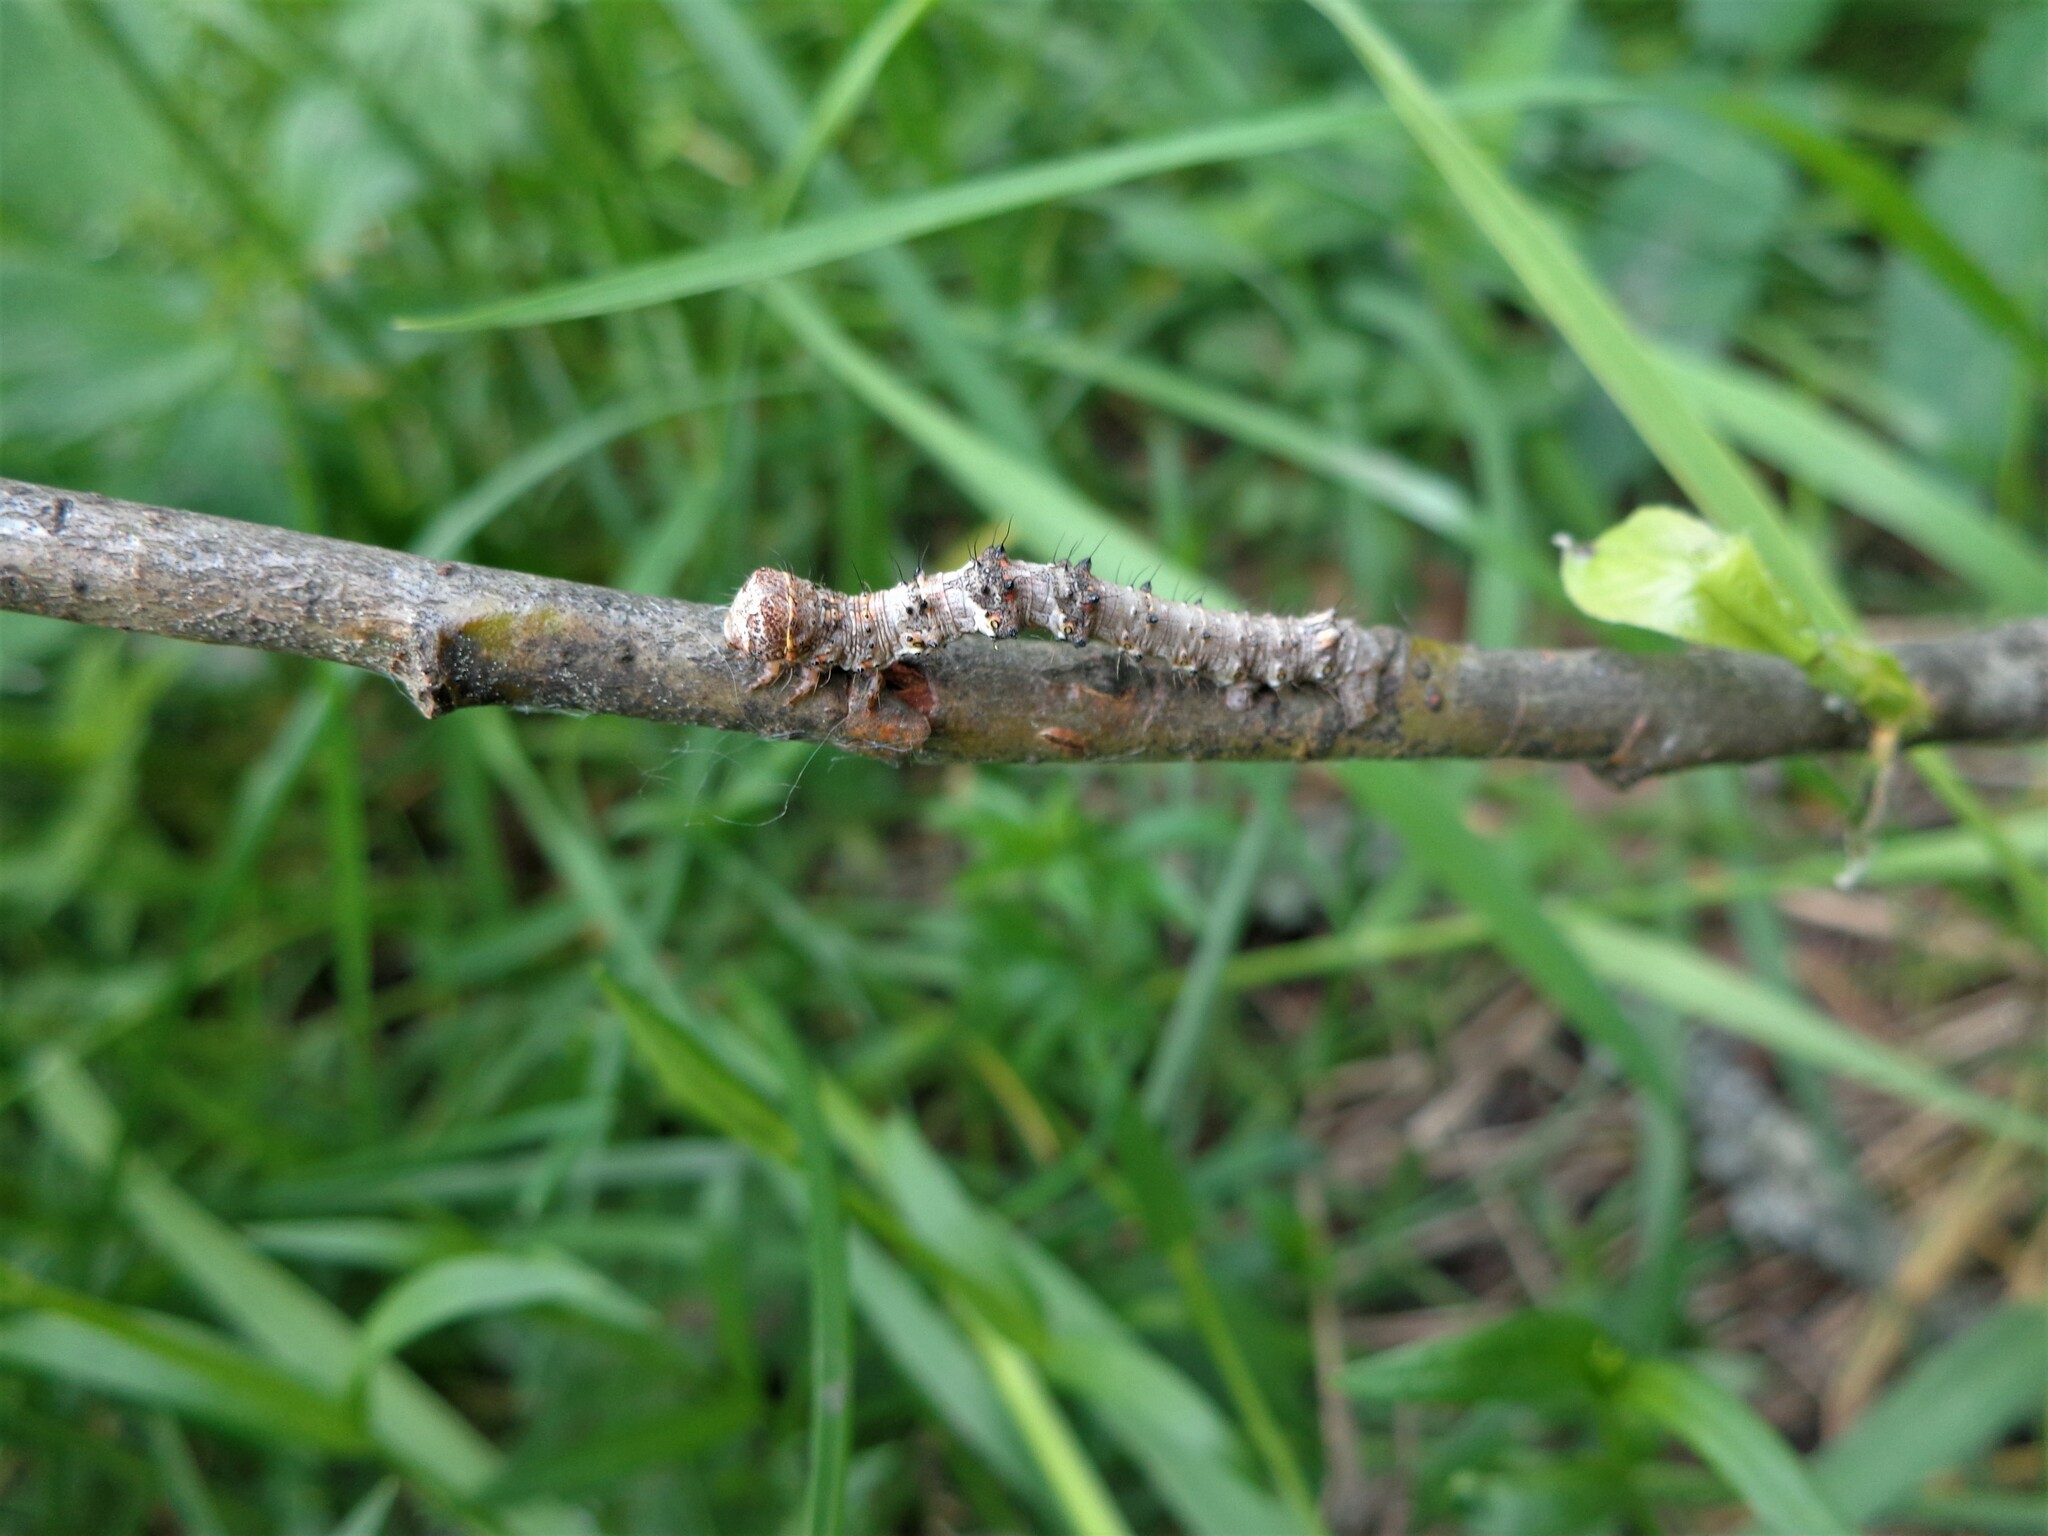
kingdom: Animalia
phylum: Arthropoda
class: Insecta
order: Lepidoptera
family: Geometridae
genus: Phigalia
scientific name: Phigalia pilosaria
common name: Pale brindled beauty
